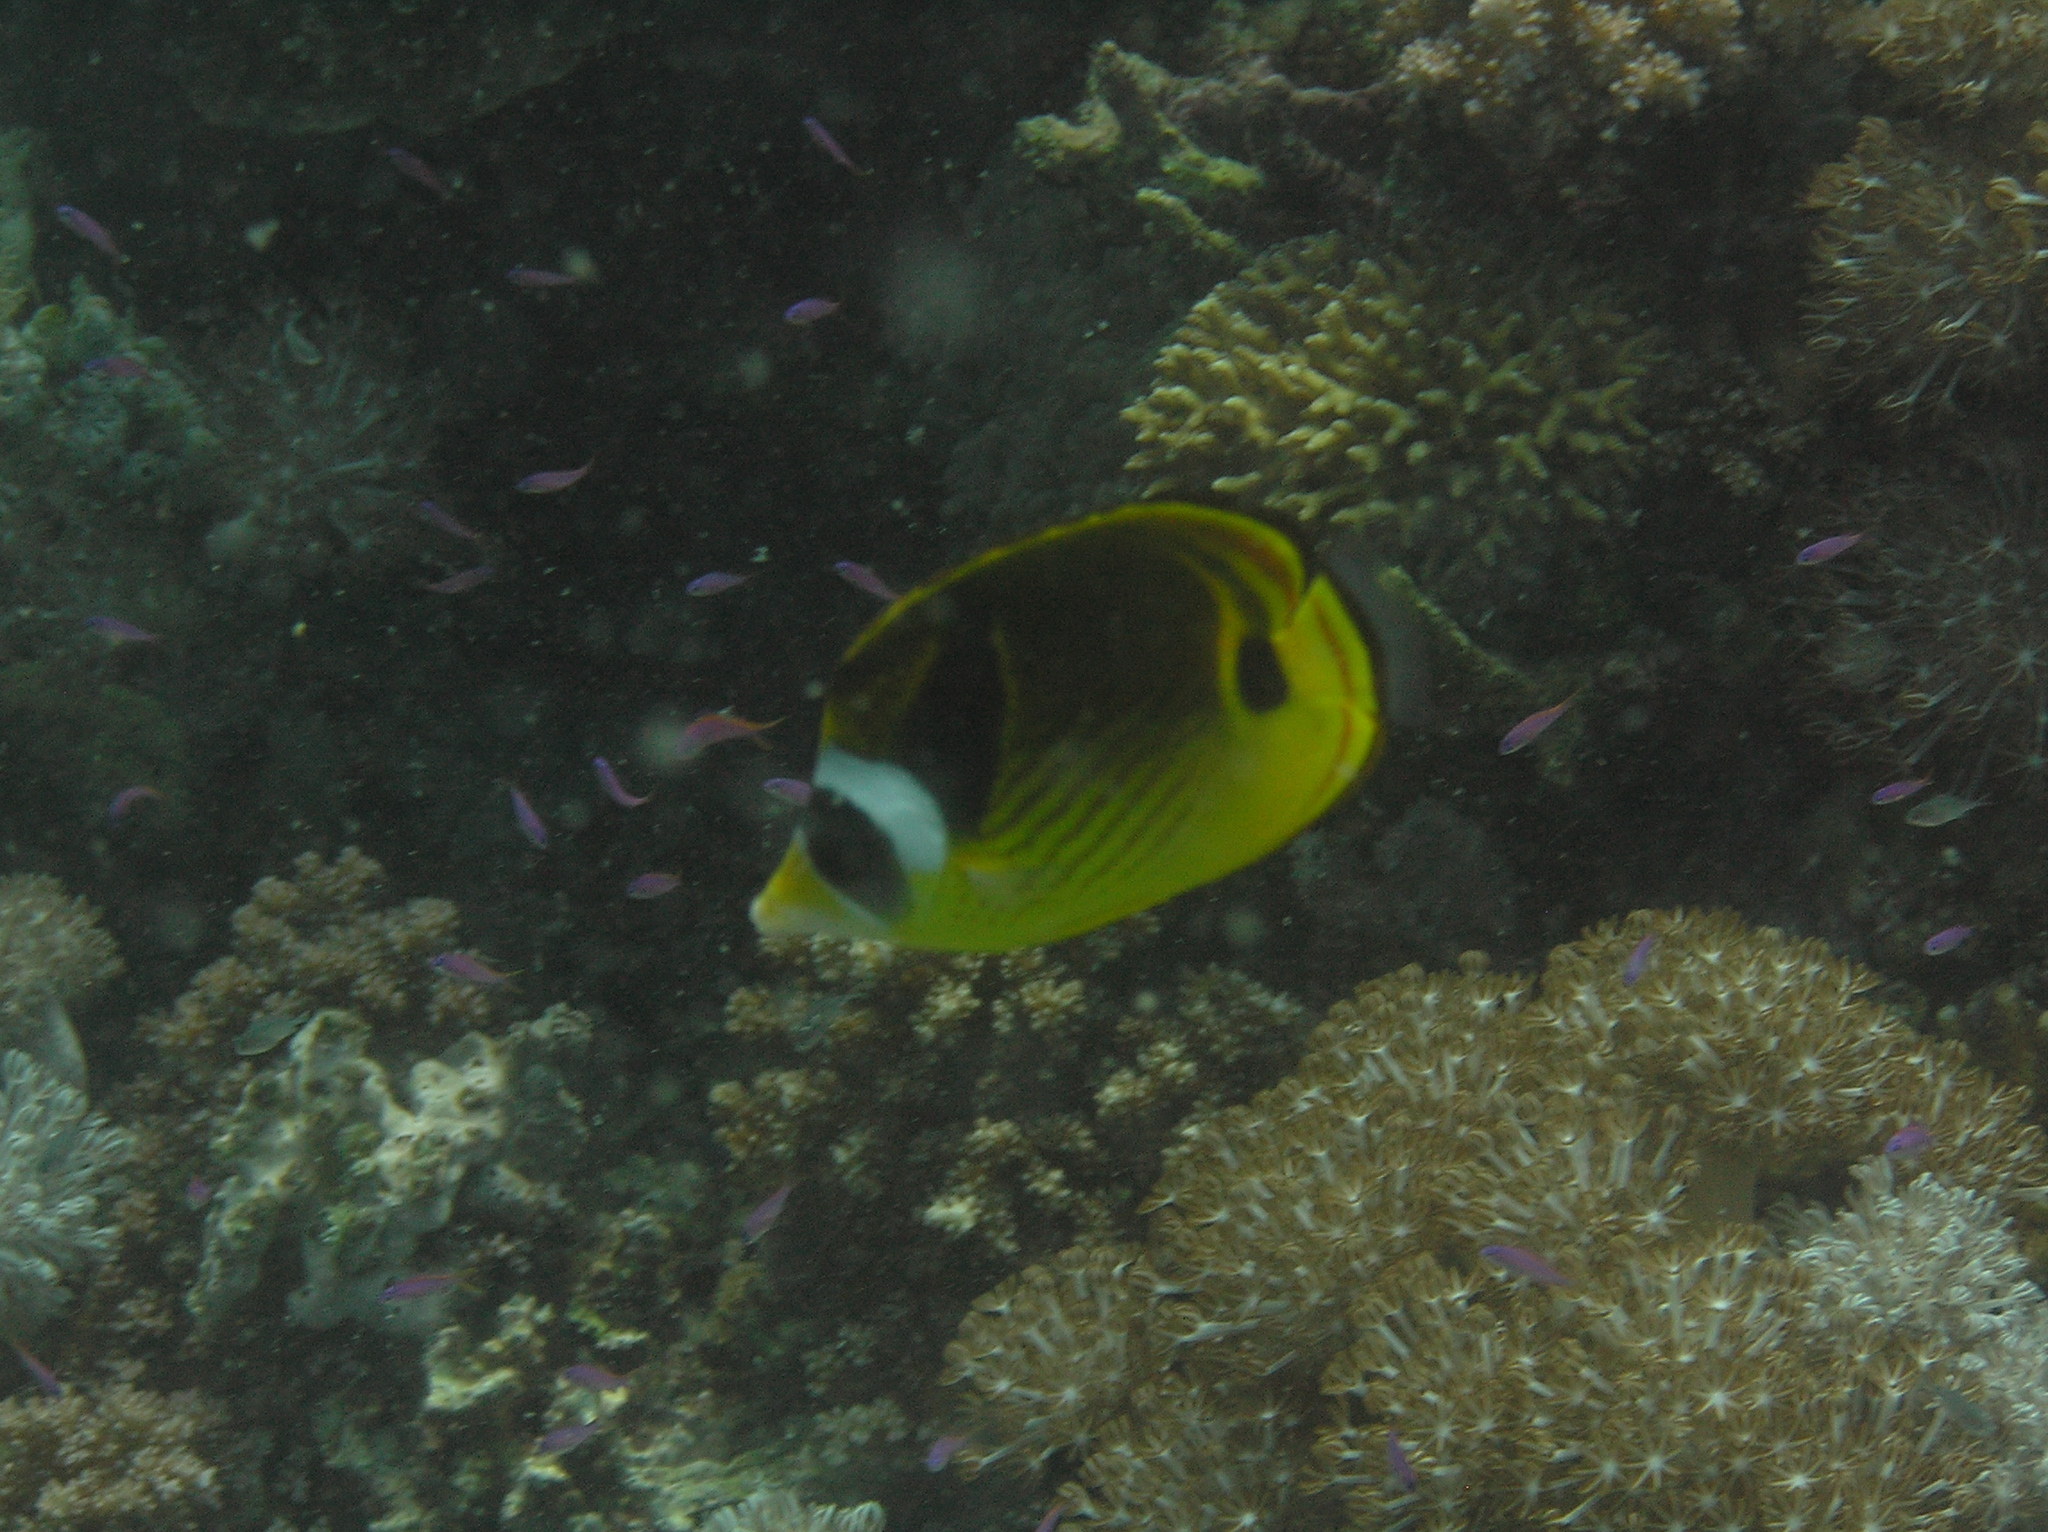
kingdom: Animalia
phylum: Chordata
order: Perciformes
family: Chaetodontidae
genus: Chaetodon
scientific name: Chaetodon lunula
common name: Raccoon butterflyfish
